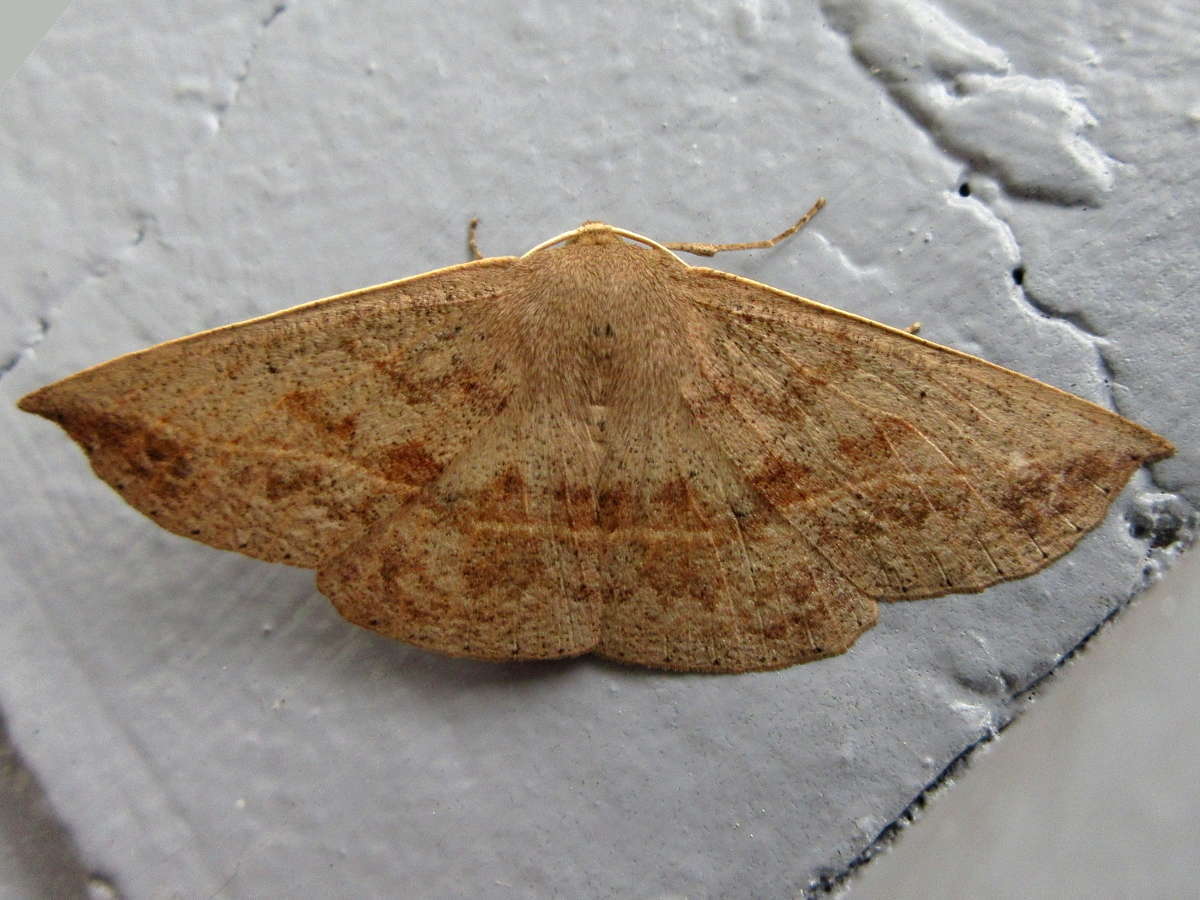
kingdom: Animalia
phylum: Arthropoda
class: Insecta
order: Lepidoptera
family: Geometridae
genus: Idiodes
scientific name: Idiodes siculoides
